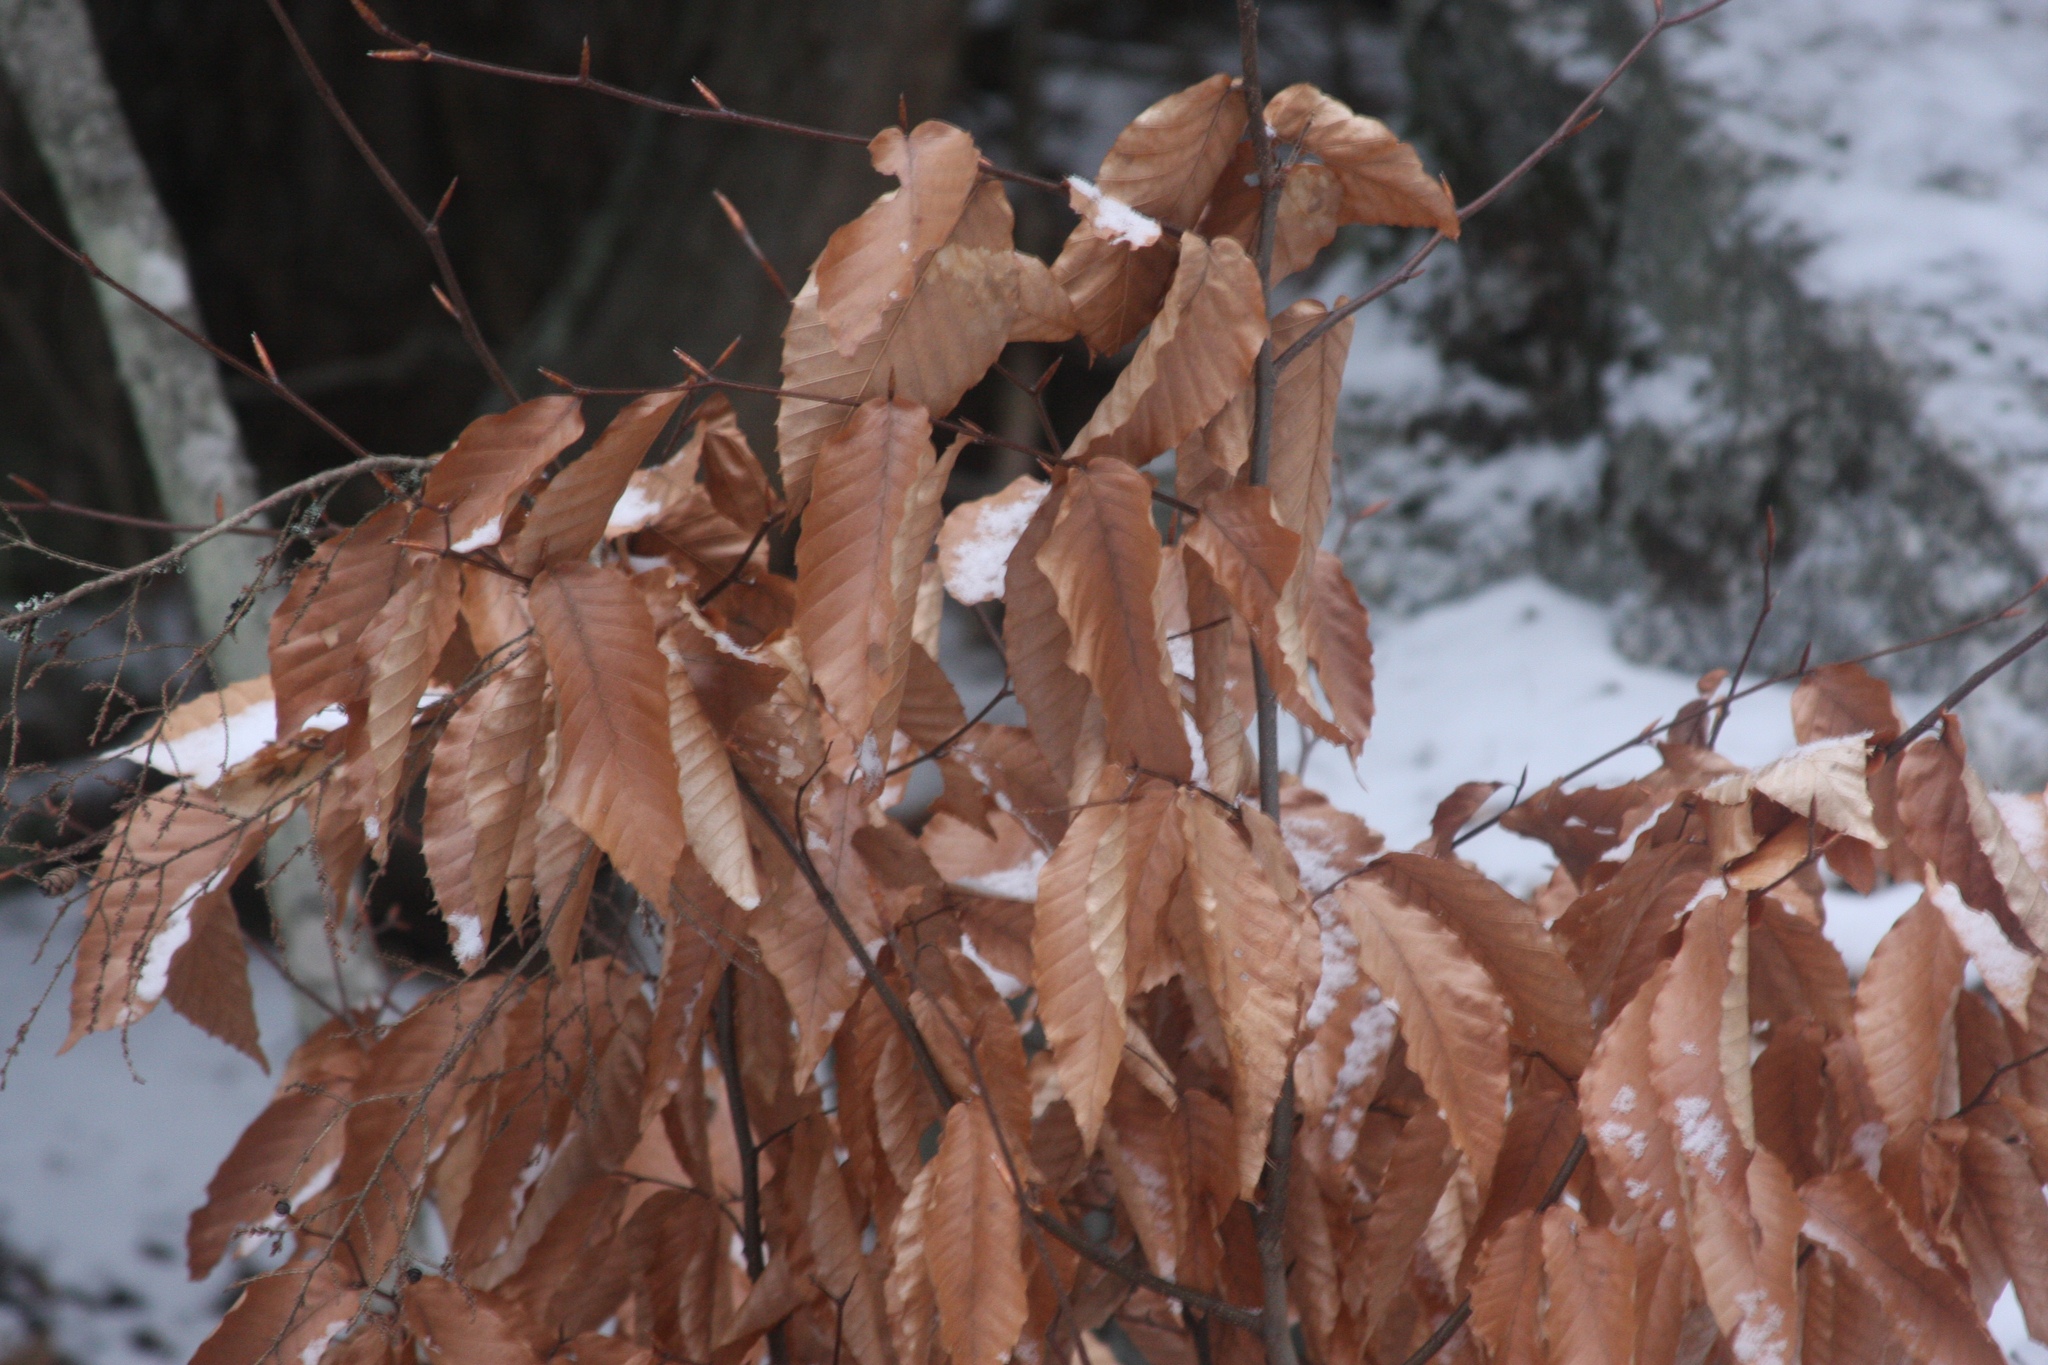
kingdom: Plantae
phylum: Tracheophyta
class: Magnoliopsida
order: Fagales
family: Fagaceae
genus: Fagus
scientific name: Fagus grandifolia
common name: American beech
